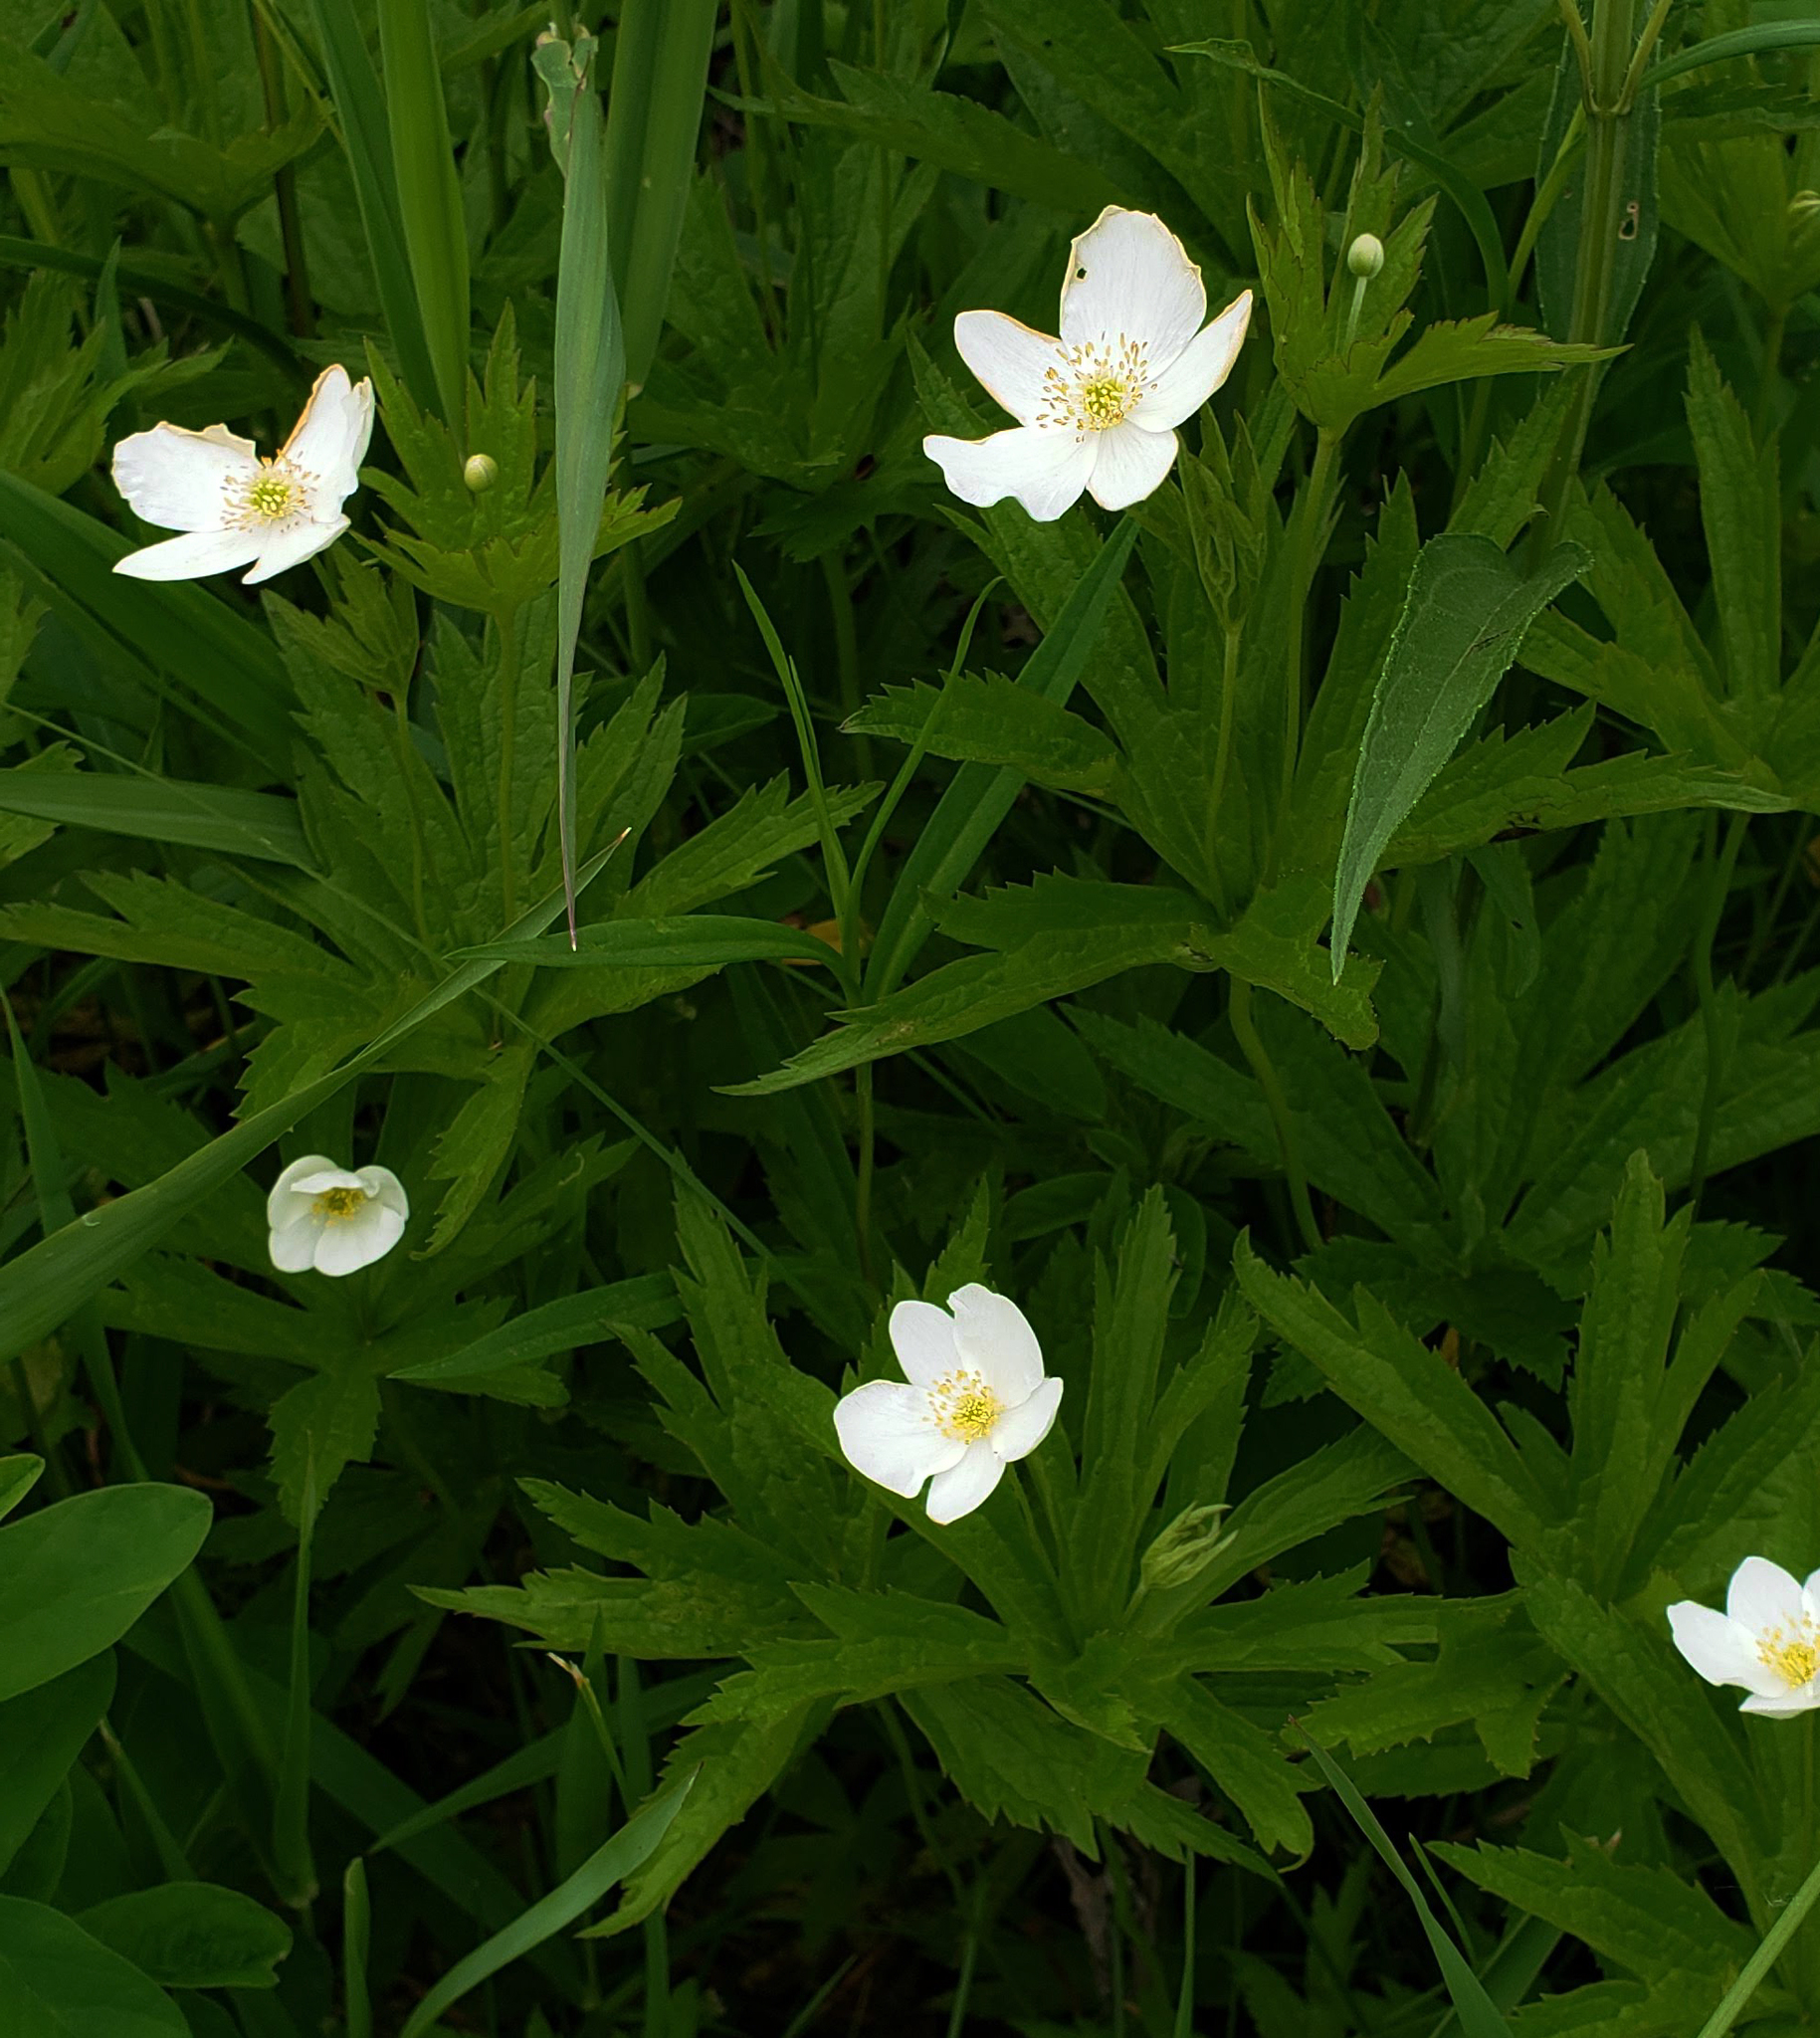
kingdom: Plantae
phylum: Tracheophyta
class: Magnoliopsida
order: Ranunculales
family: Ranunculaceae
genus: Anemonastrum
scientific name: Anemonastrum canadense
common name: Canada anemone
